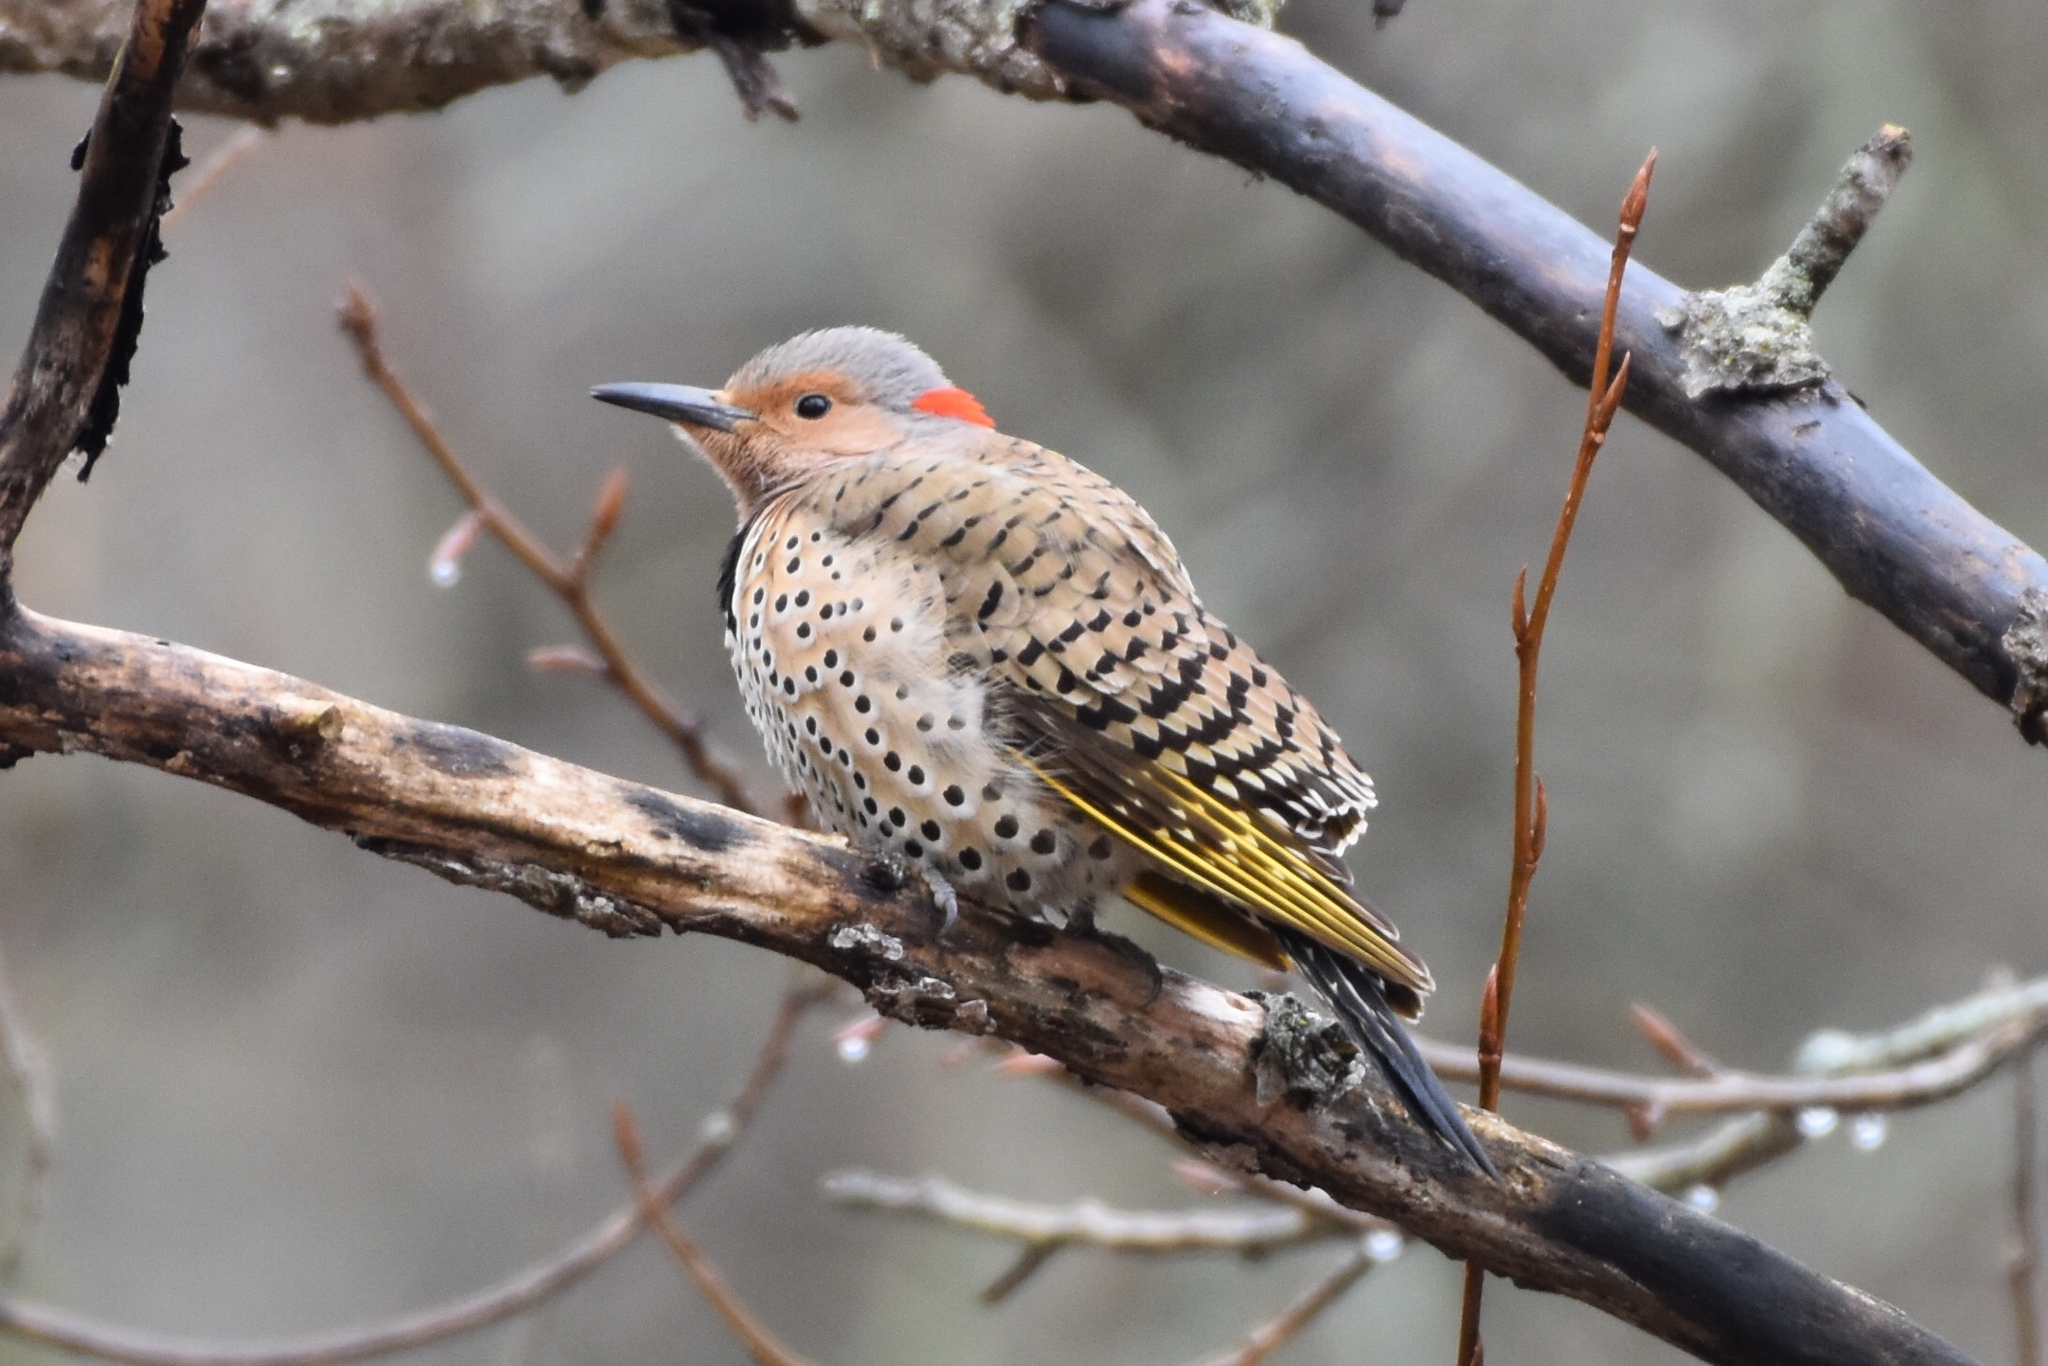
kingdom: Animalia
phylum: Chordata
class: Aves
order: Piciformes
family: Picidae
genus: Colaptes
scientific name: Colaptes auratus
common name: Northern flicker
